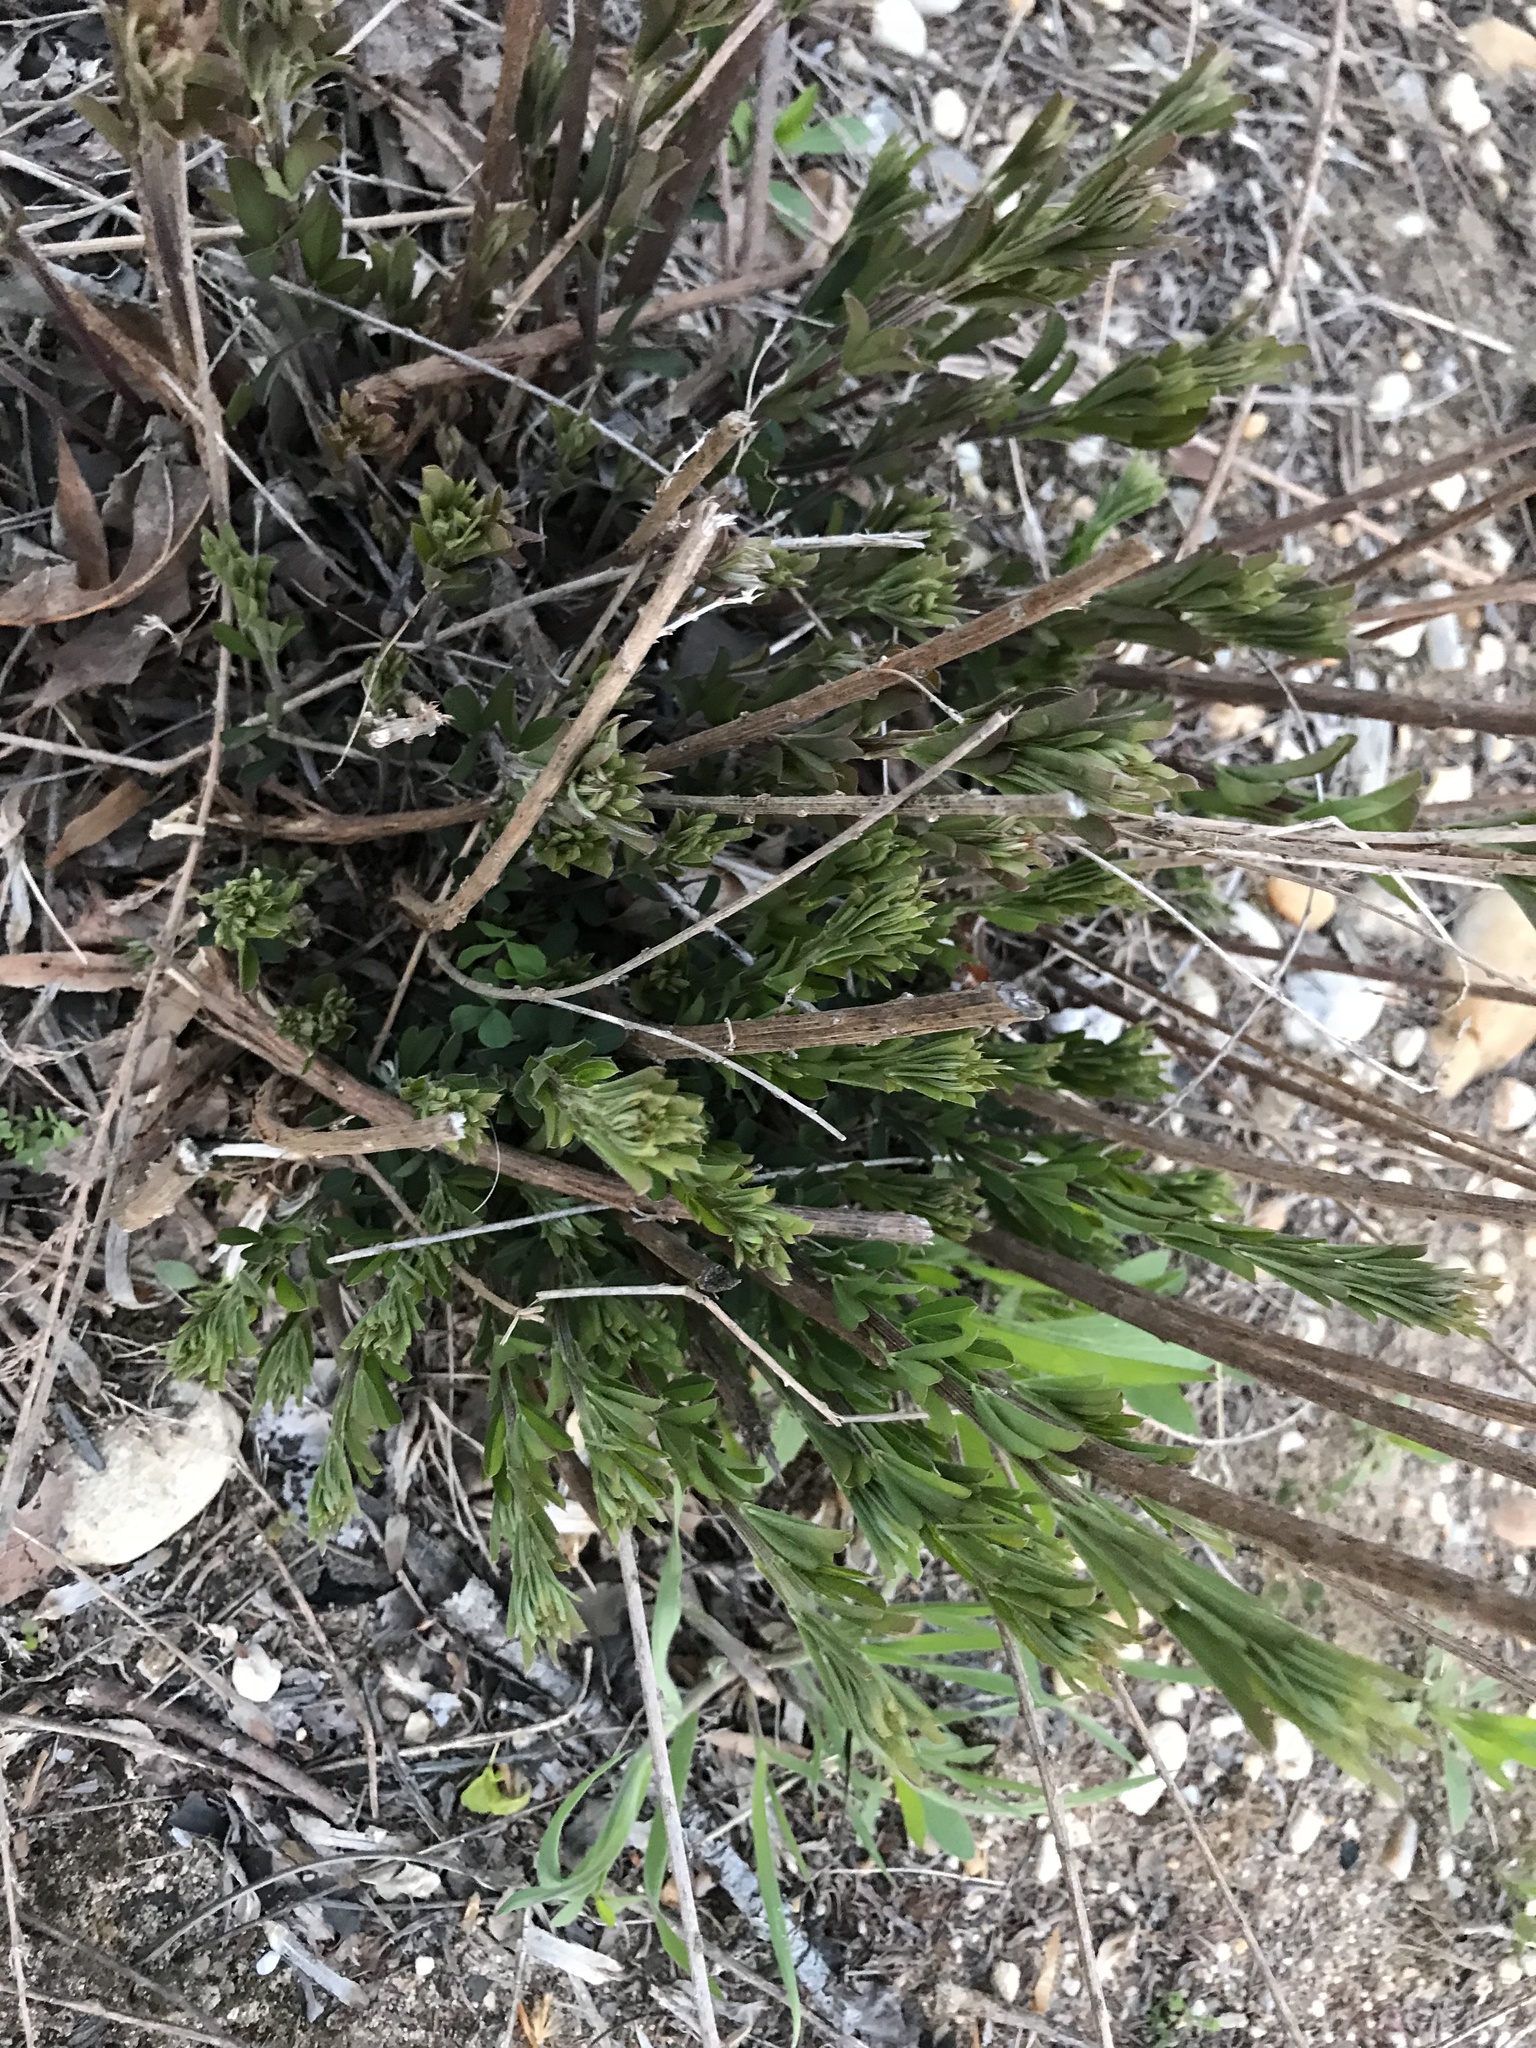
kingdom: Plantae
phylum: Tracheophyta
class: Magnoliopsida
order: Fabales
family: Fabaceae
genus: Lespedeza
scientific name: Lespedeza cuneata
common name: Chinese bush-clover
